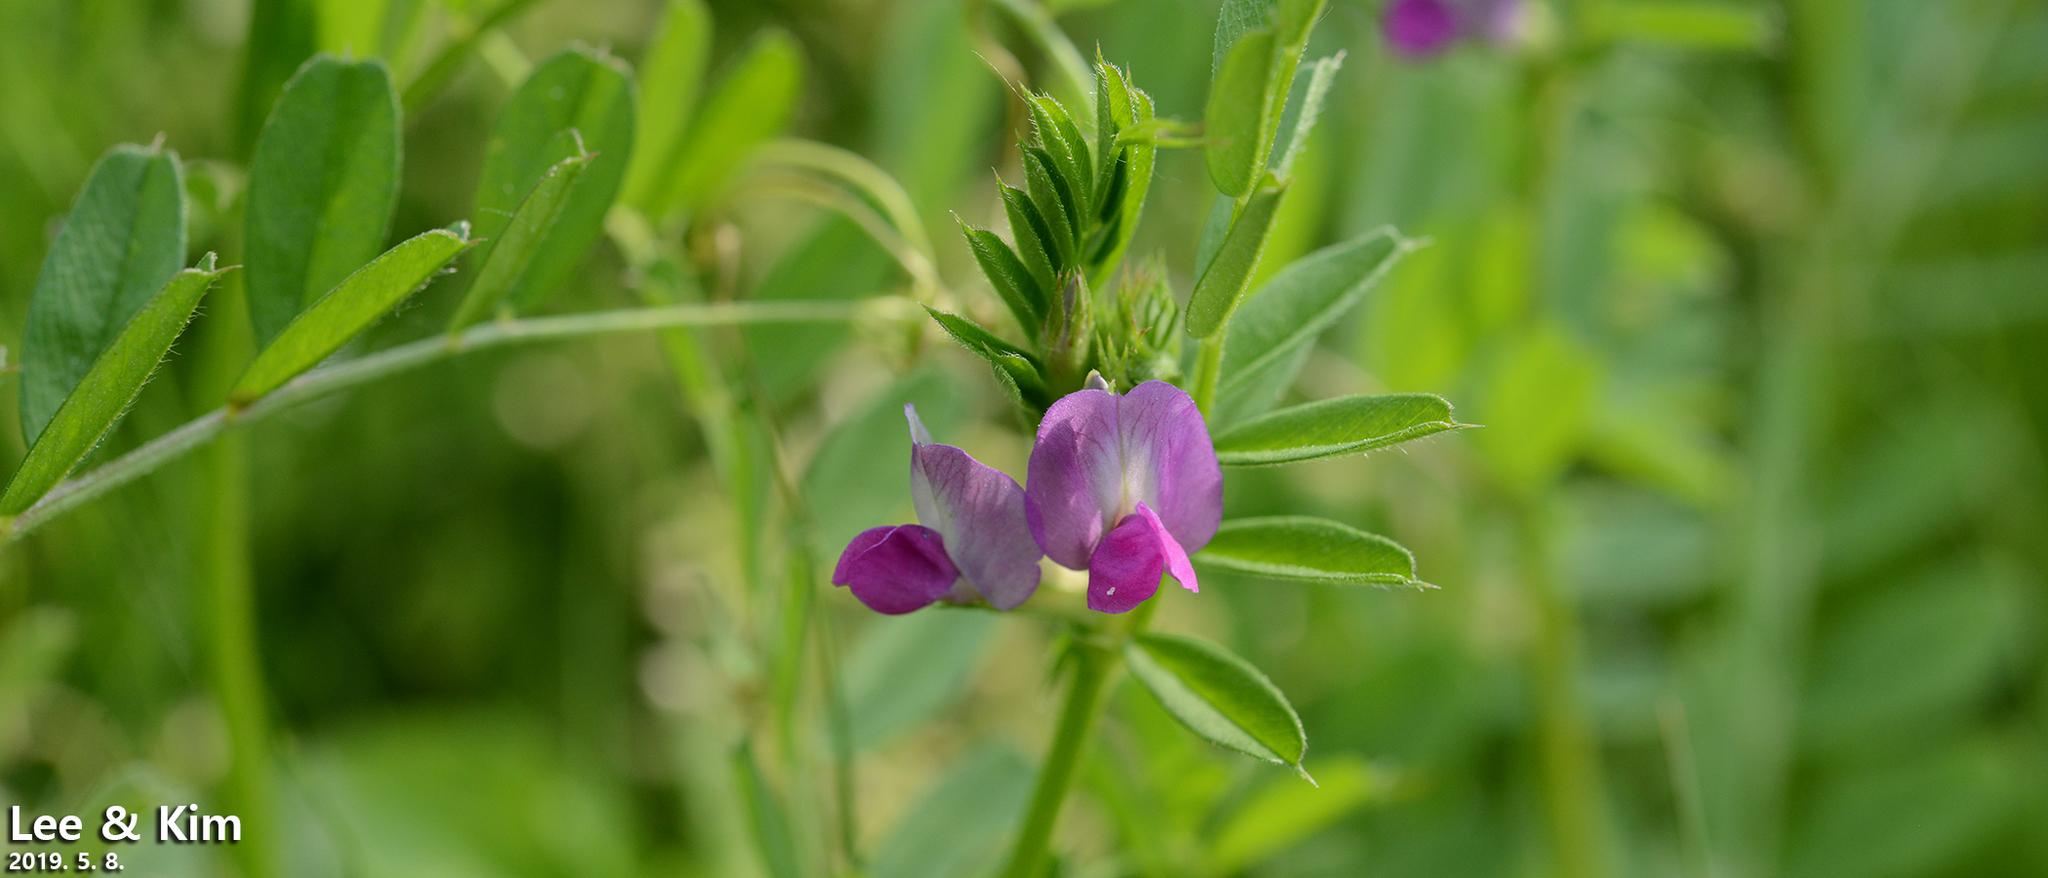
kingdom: Plantae
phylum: Tracheophyta
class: Magnoliopsida
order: Fabales
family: Fabaceae
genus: Vicia
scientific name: Vicia sativa
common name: Garden vetch
